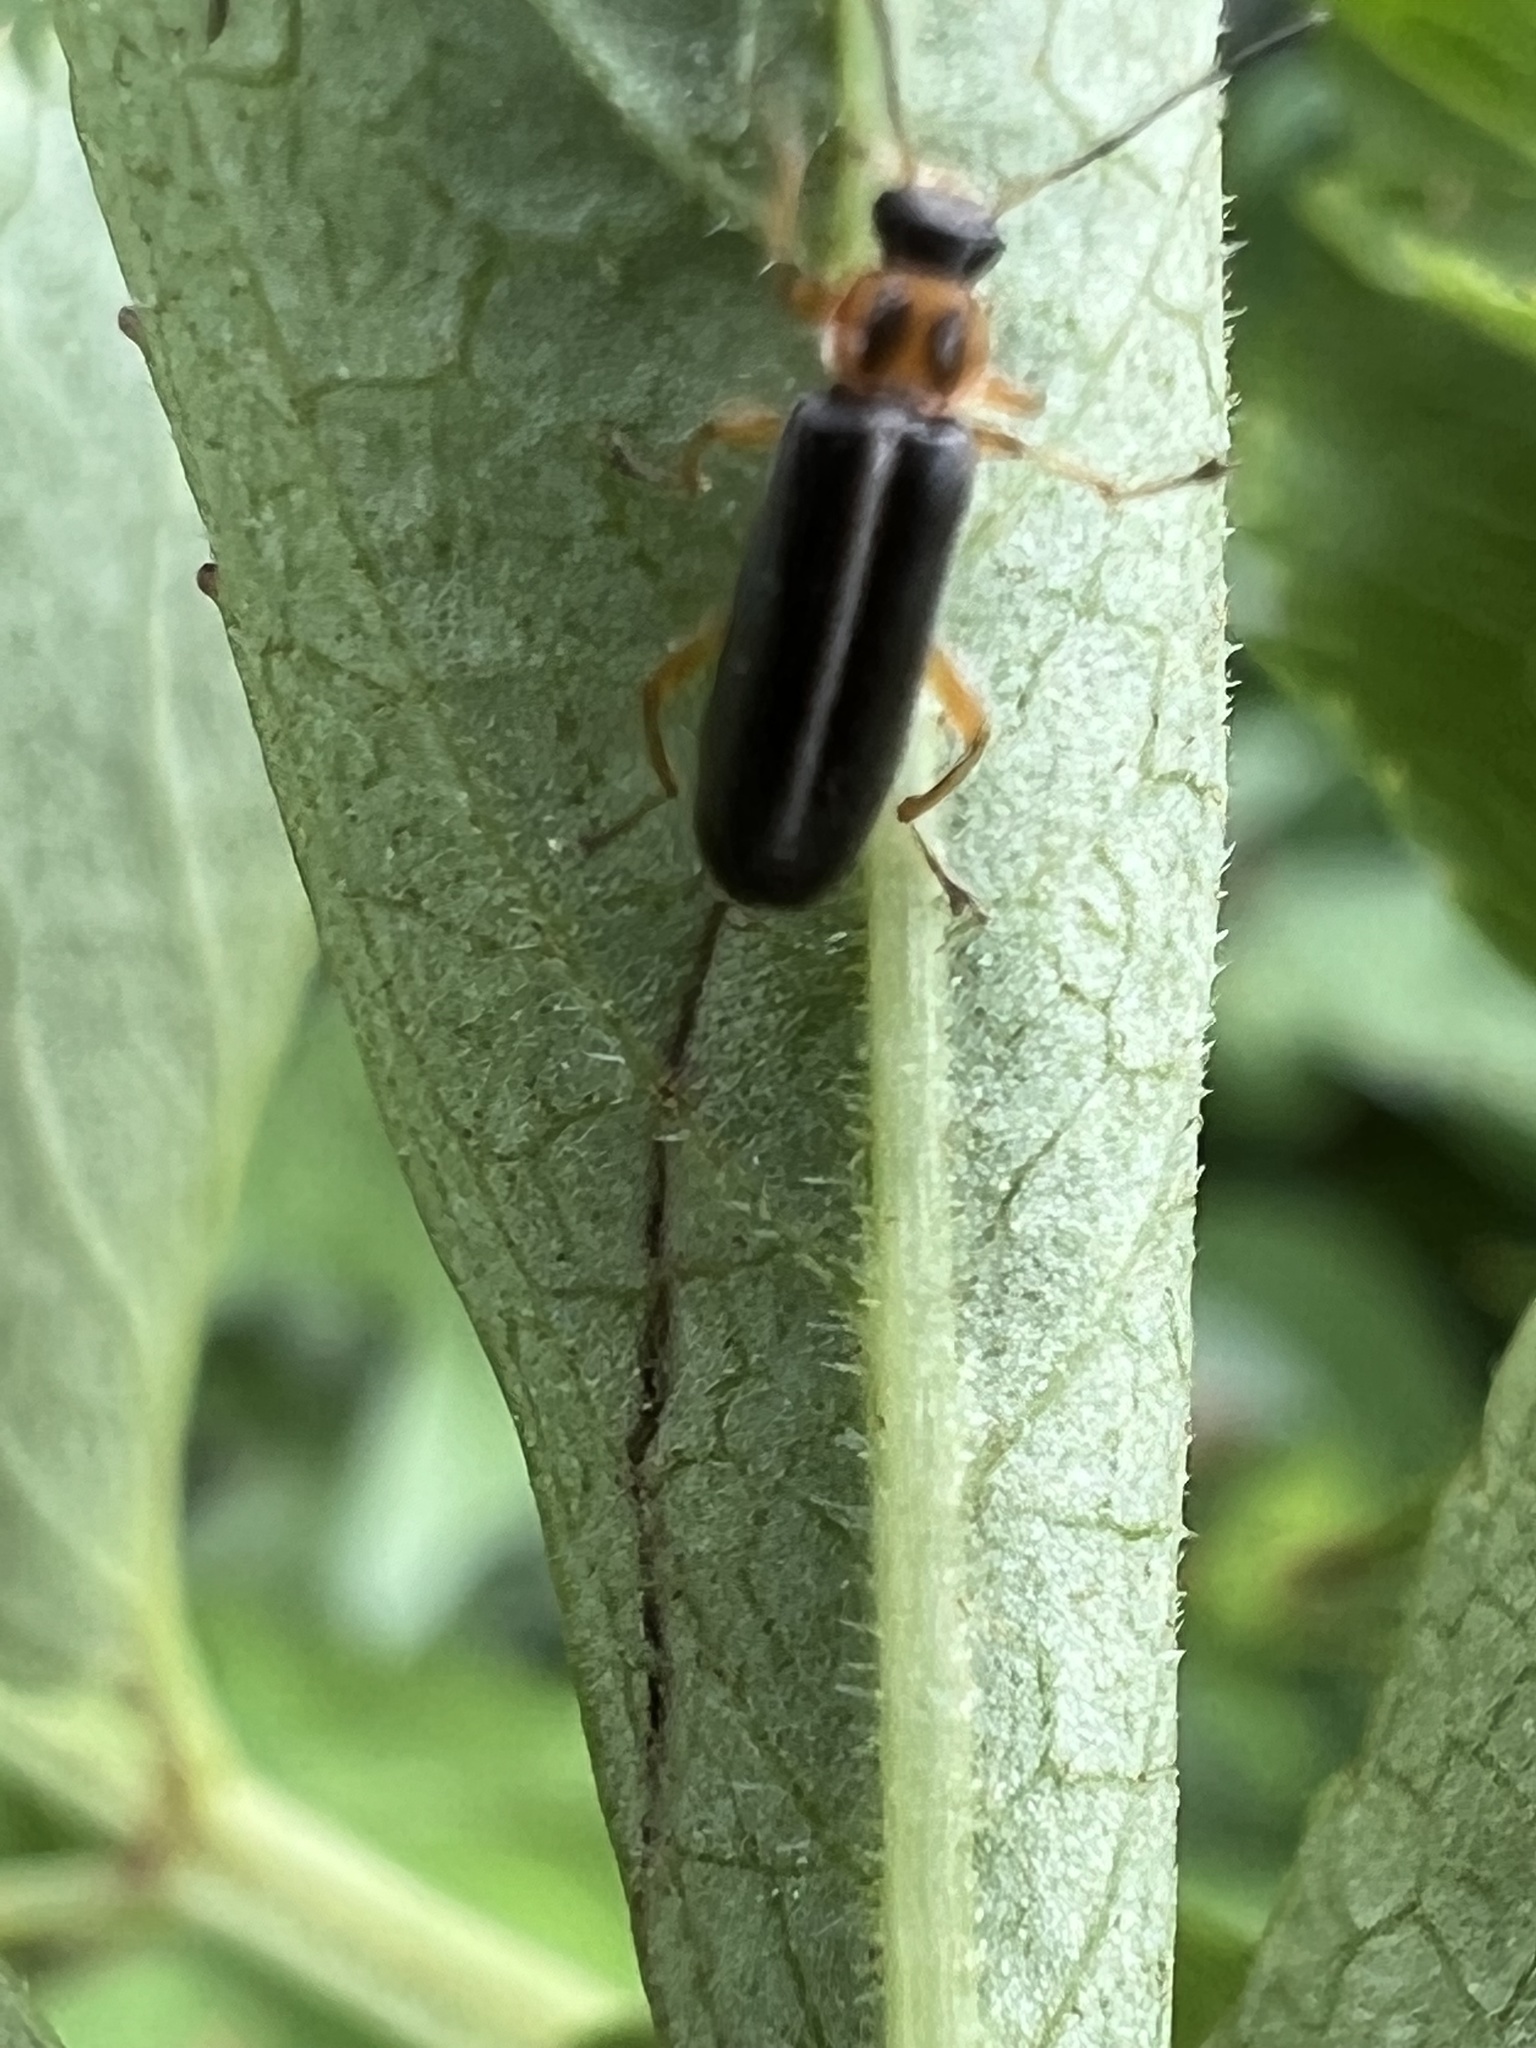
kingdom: Animalia
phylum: Arthropoda
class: Insecta
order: Coleoptera
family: Melandryidae
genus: Osphya
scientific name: Osphya varians
